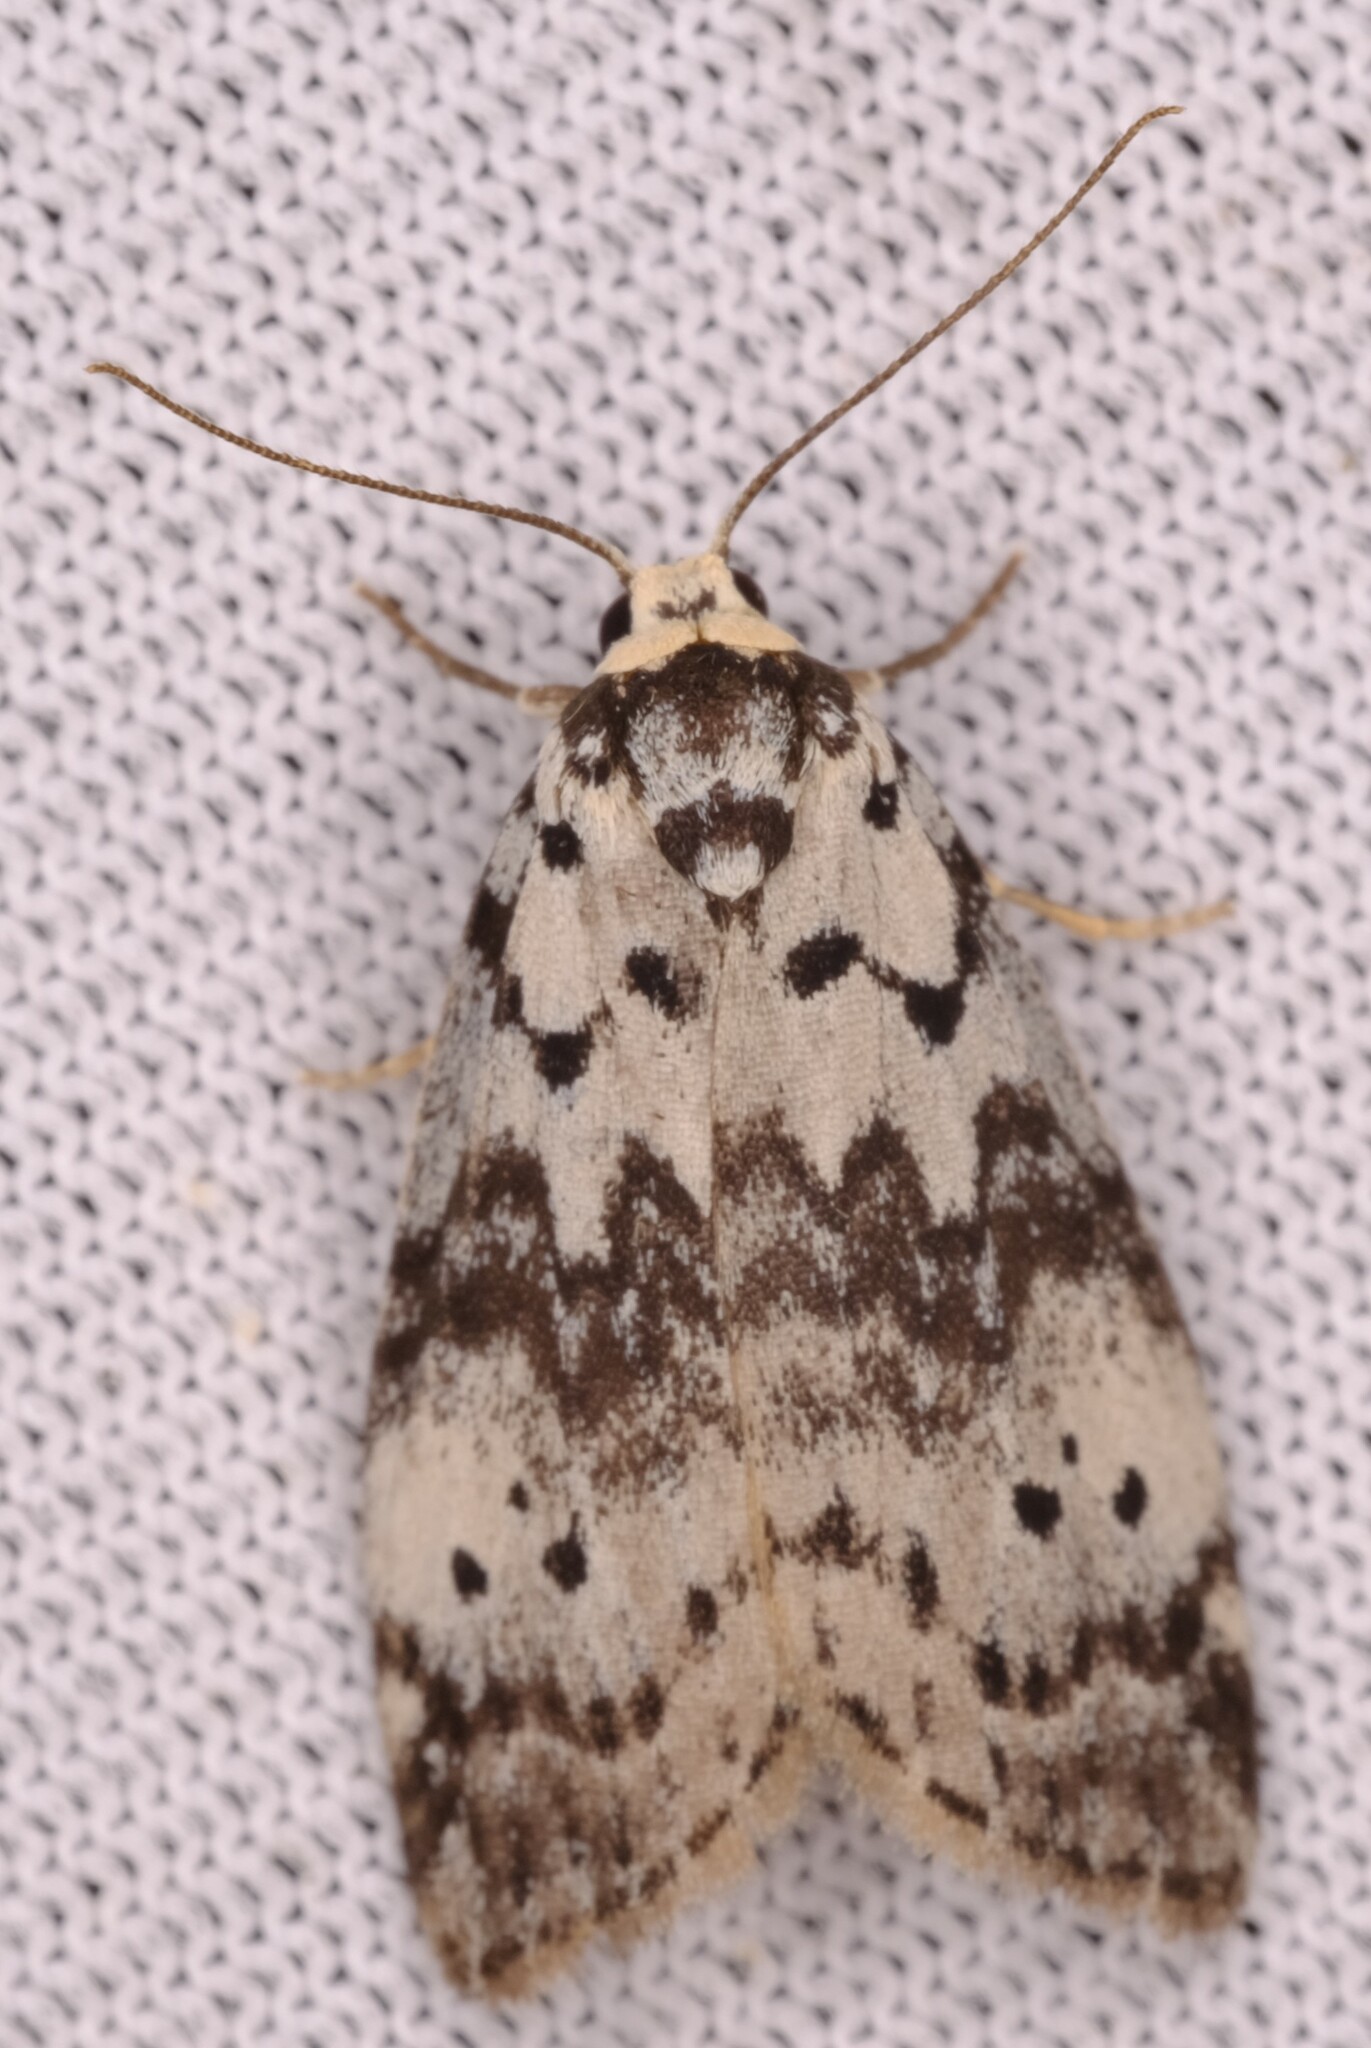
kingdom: Animalia
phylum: Arthropoda
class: Insecta
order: Lepidoptera
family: Erebidae
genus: Thallarcha
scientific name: Thallarcha rhaptophora
